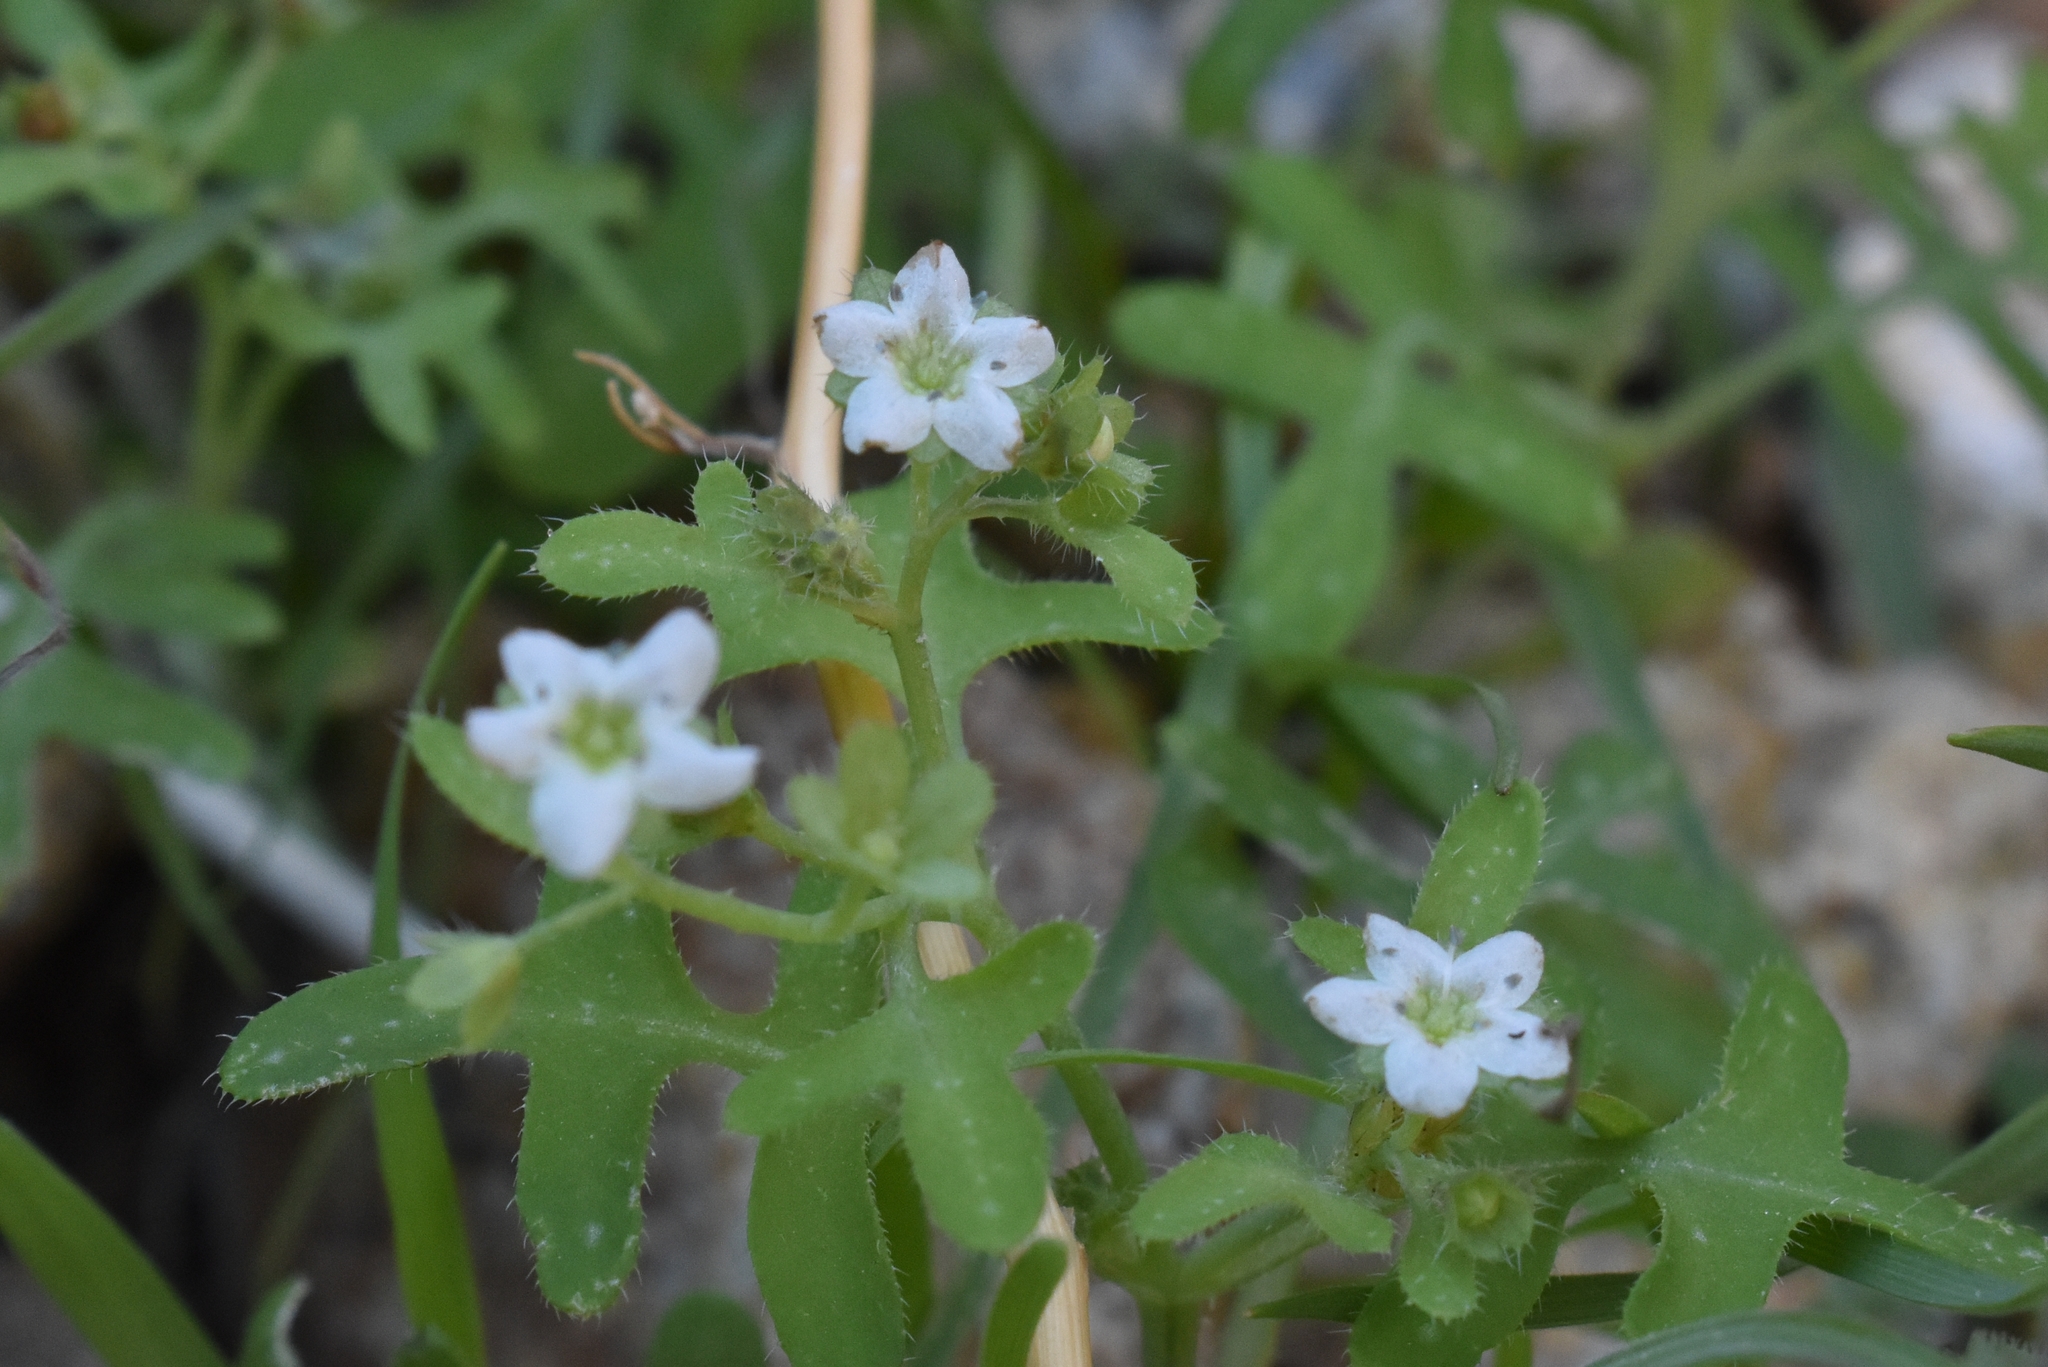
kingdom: Plantae
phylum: Tracheophyta
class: Magnoliopsida
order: Boraginales
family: Hydrophyllaceae
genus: Pholistoma
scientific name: Pholistoma membranaceum
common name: White fiesta-flower
